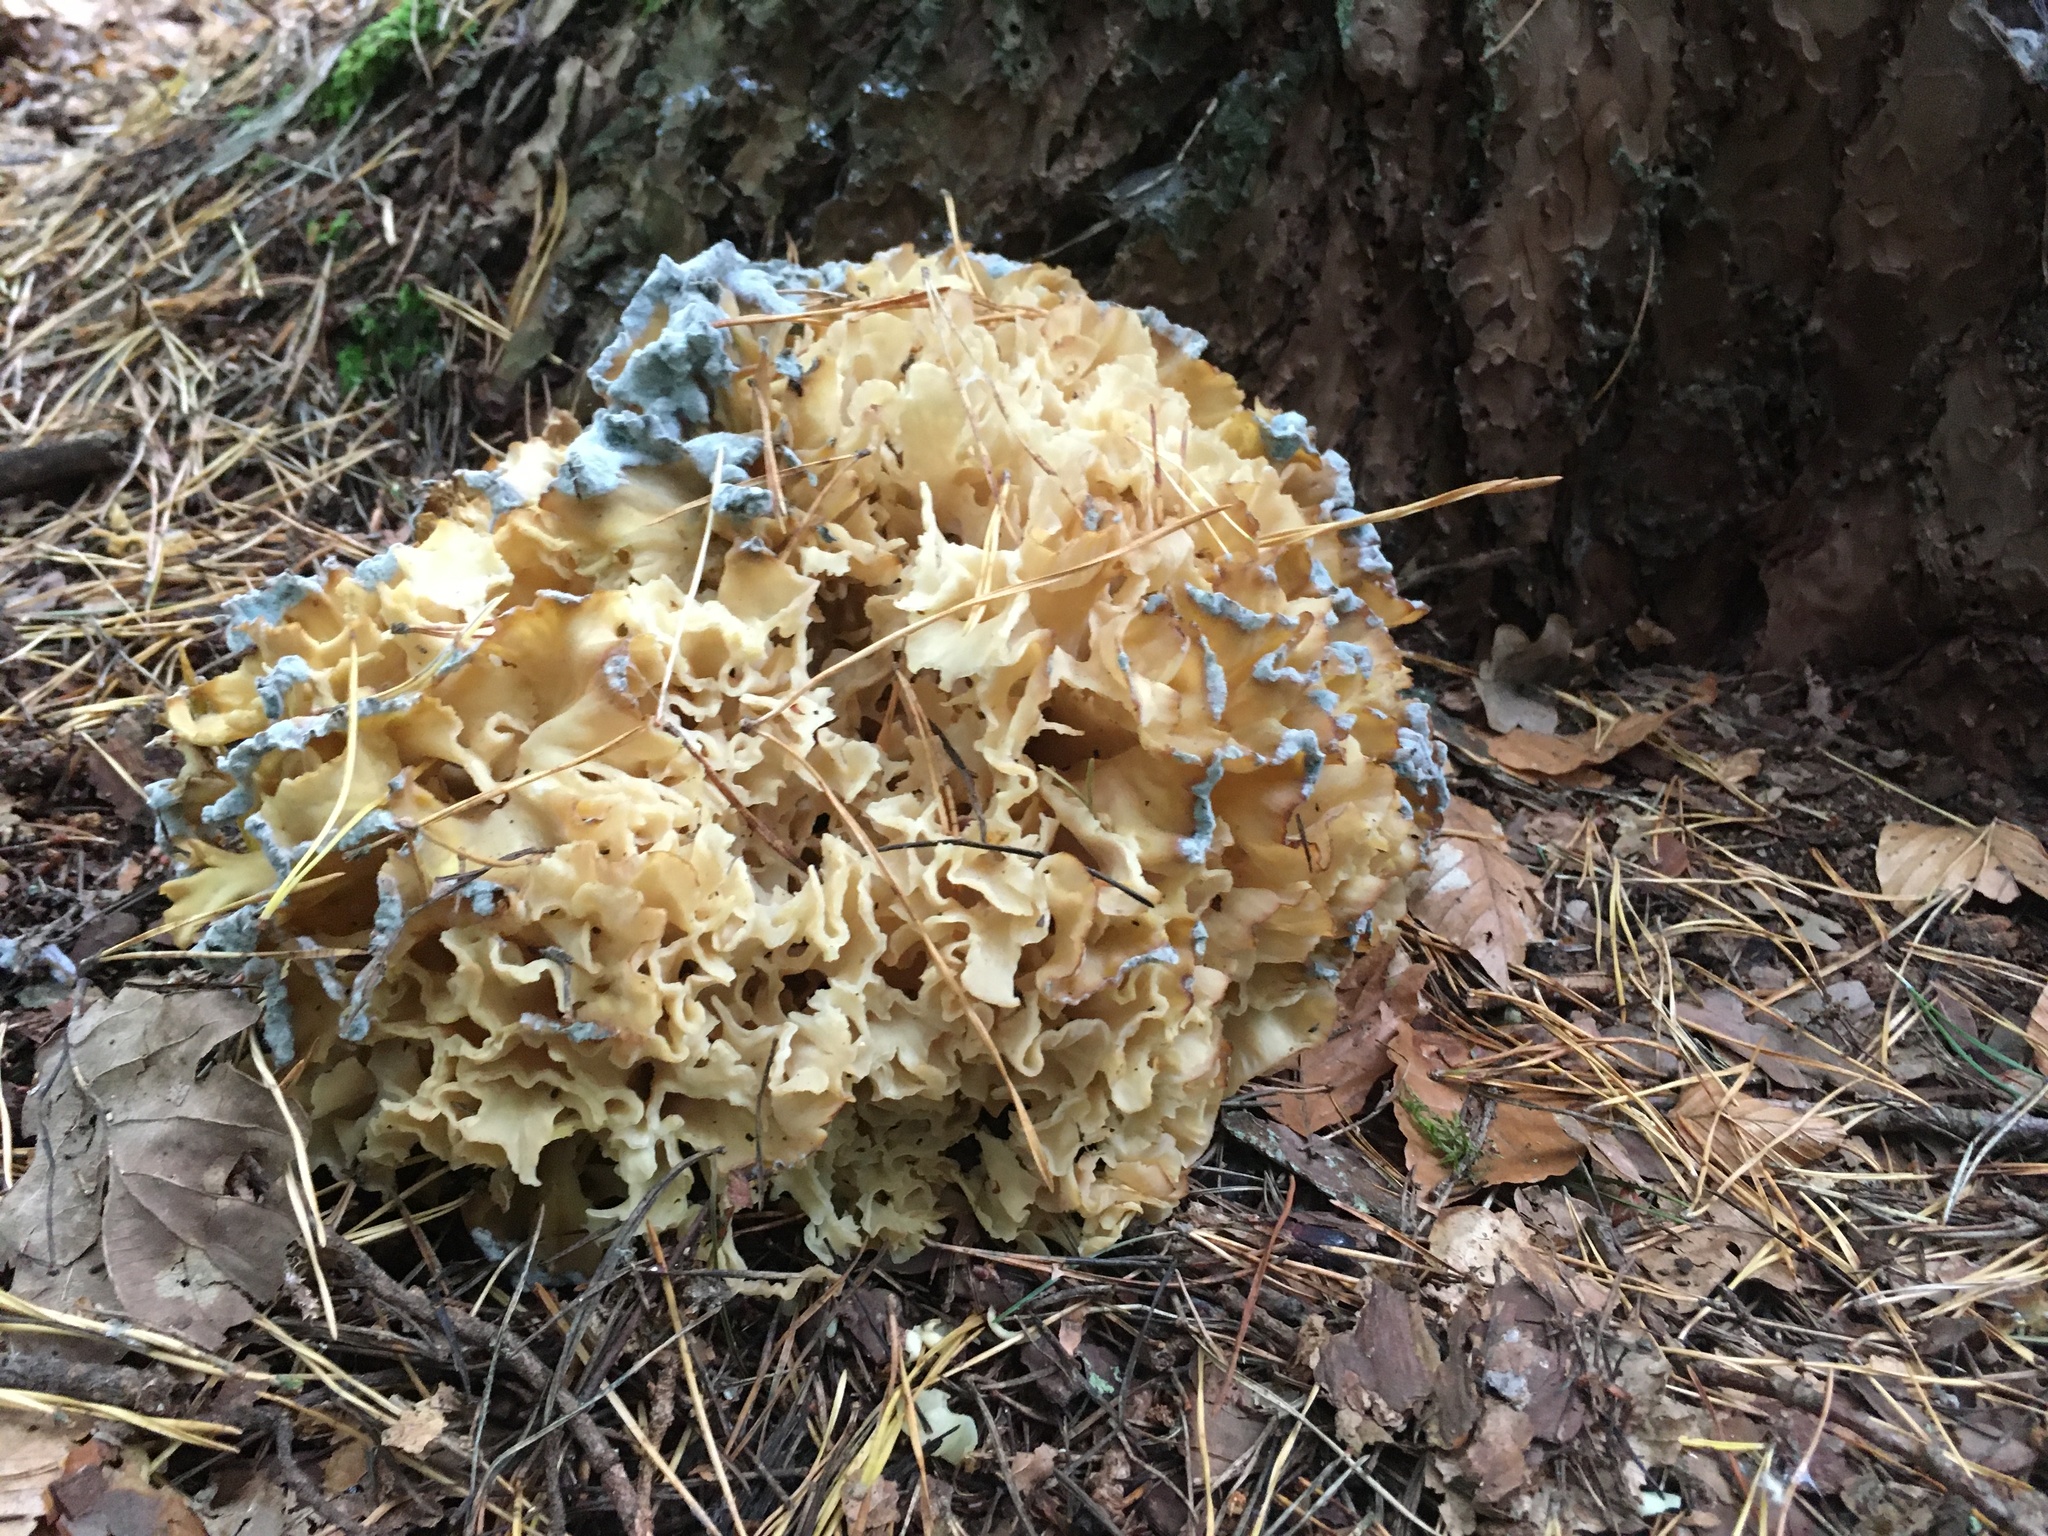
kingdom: Fungi
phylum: Basidiomycota
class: Agaricomycetes
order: Polyporales
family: Sparassidaceae
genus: Sparassis
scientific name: Sparassis crispa
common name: Brain fungus
